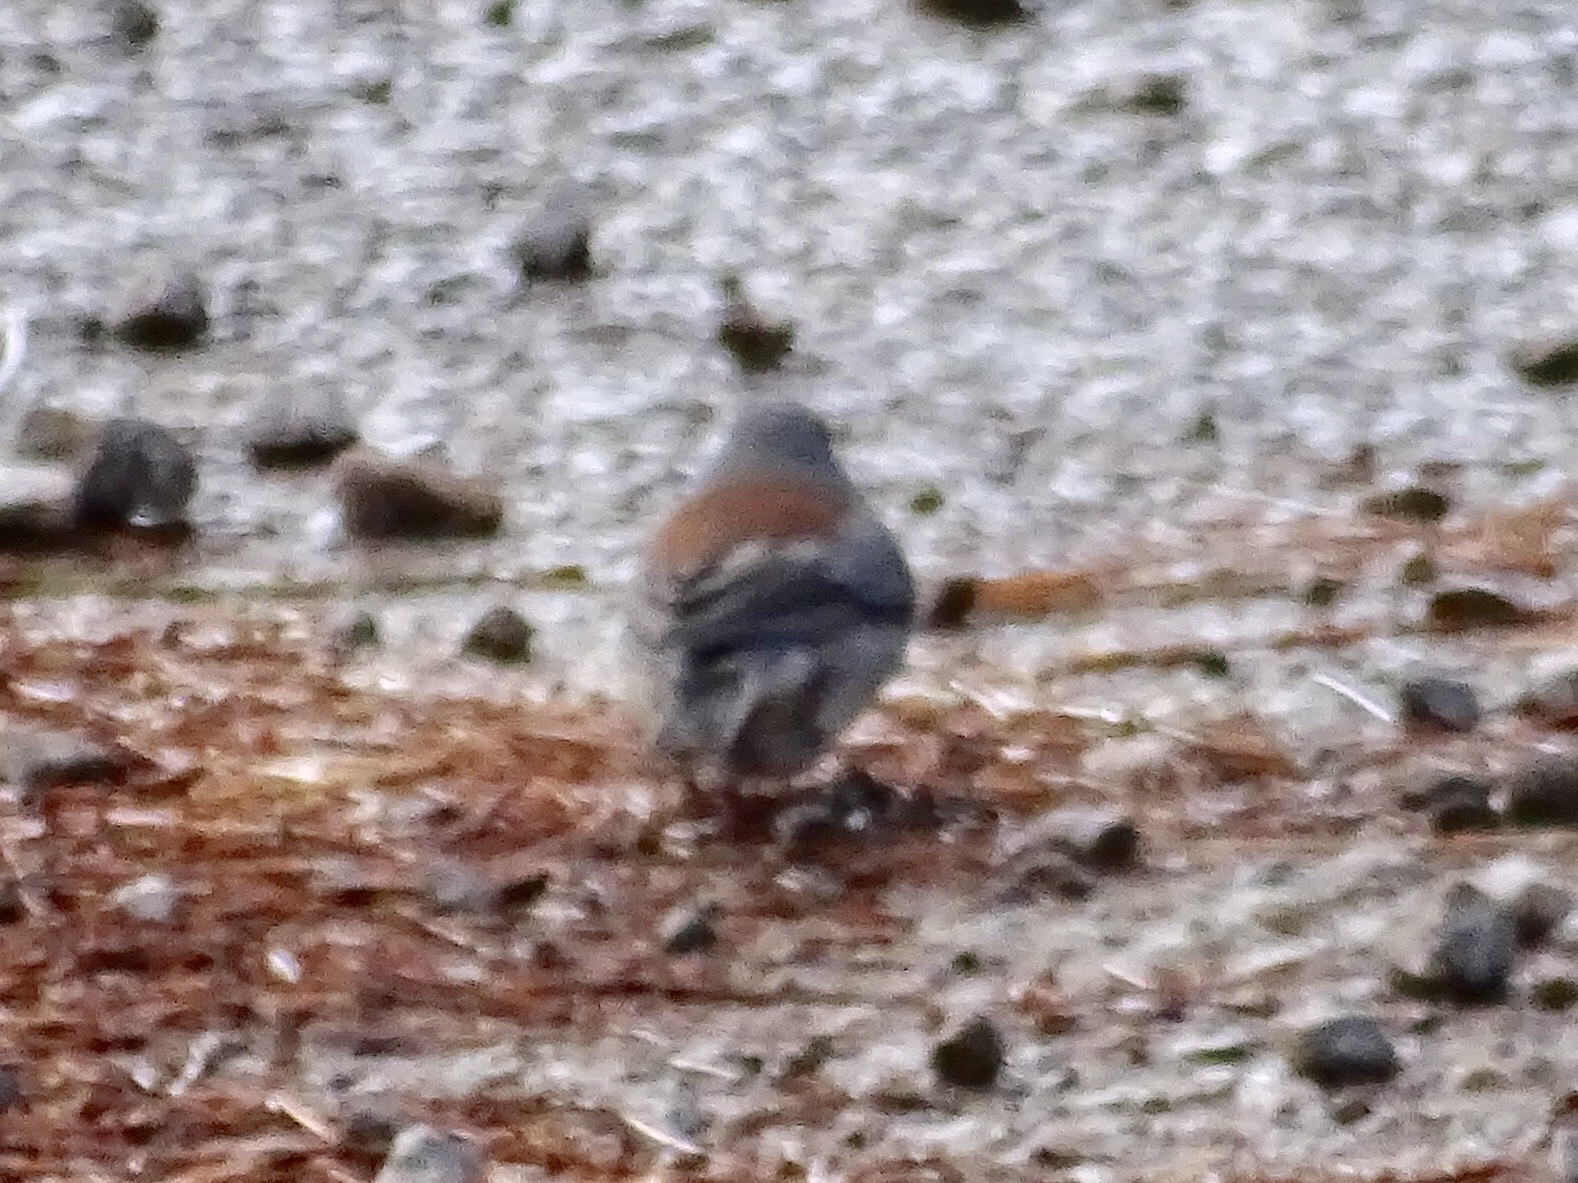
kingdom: Animalia
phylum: Chordata
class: Aves
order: Passeriformes
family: Passerellidae
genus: Junco
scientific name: Junco hyemalis
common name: Dark-eyed junco
